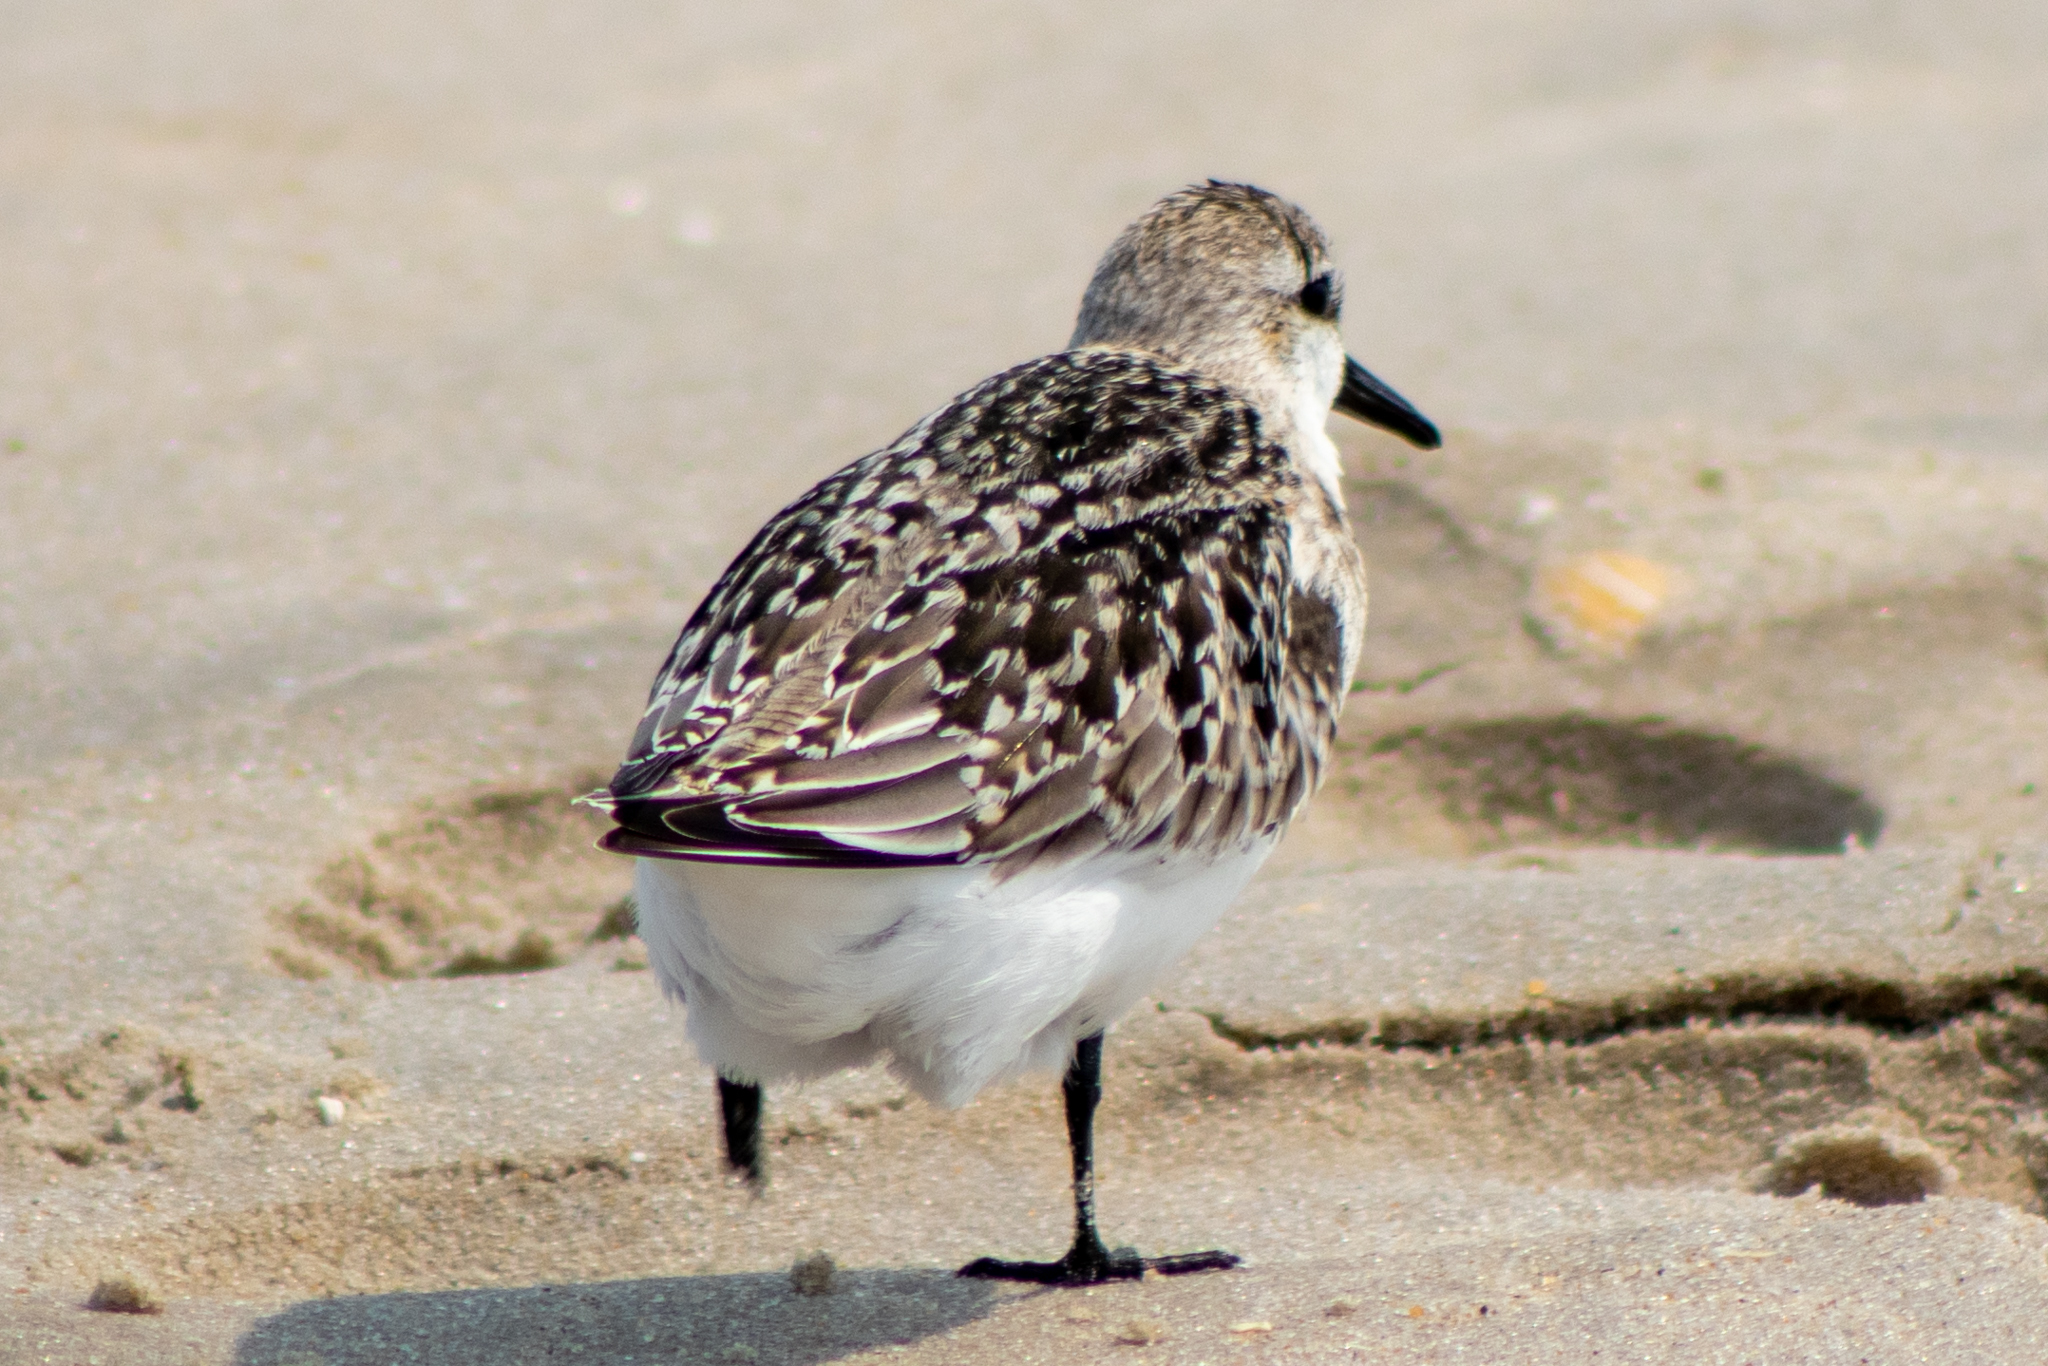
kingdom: Animalia
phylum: Chordata
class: Aves
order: Charadriiformes
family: Scolopacidae
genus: Calidris
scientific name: Calidris alba
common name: Sanderling
